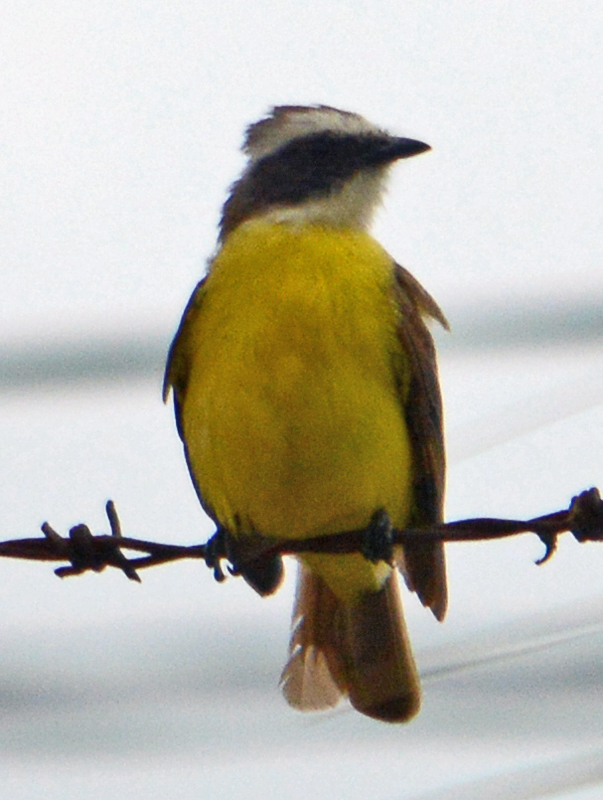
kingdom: Animalia
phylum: Chordata
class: Aves
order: Passeriformes
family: Tyrannidae
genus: Myiozetetes
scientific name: Myiozetetes similis
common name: Social flycatcher
